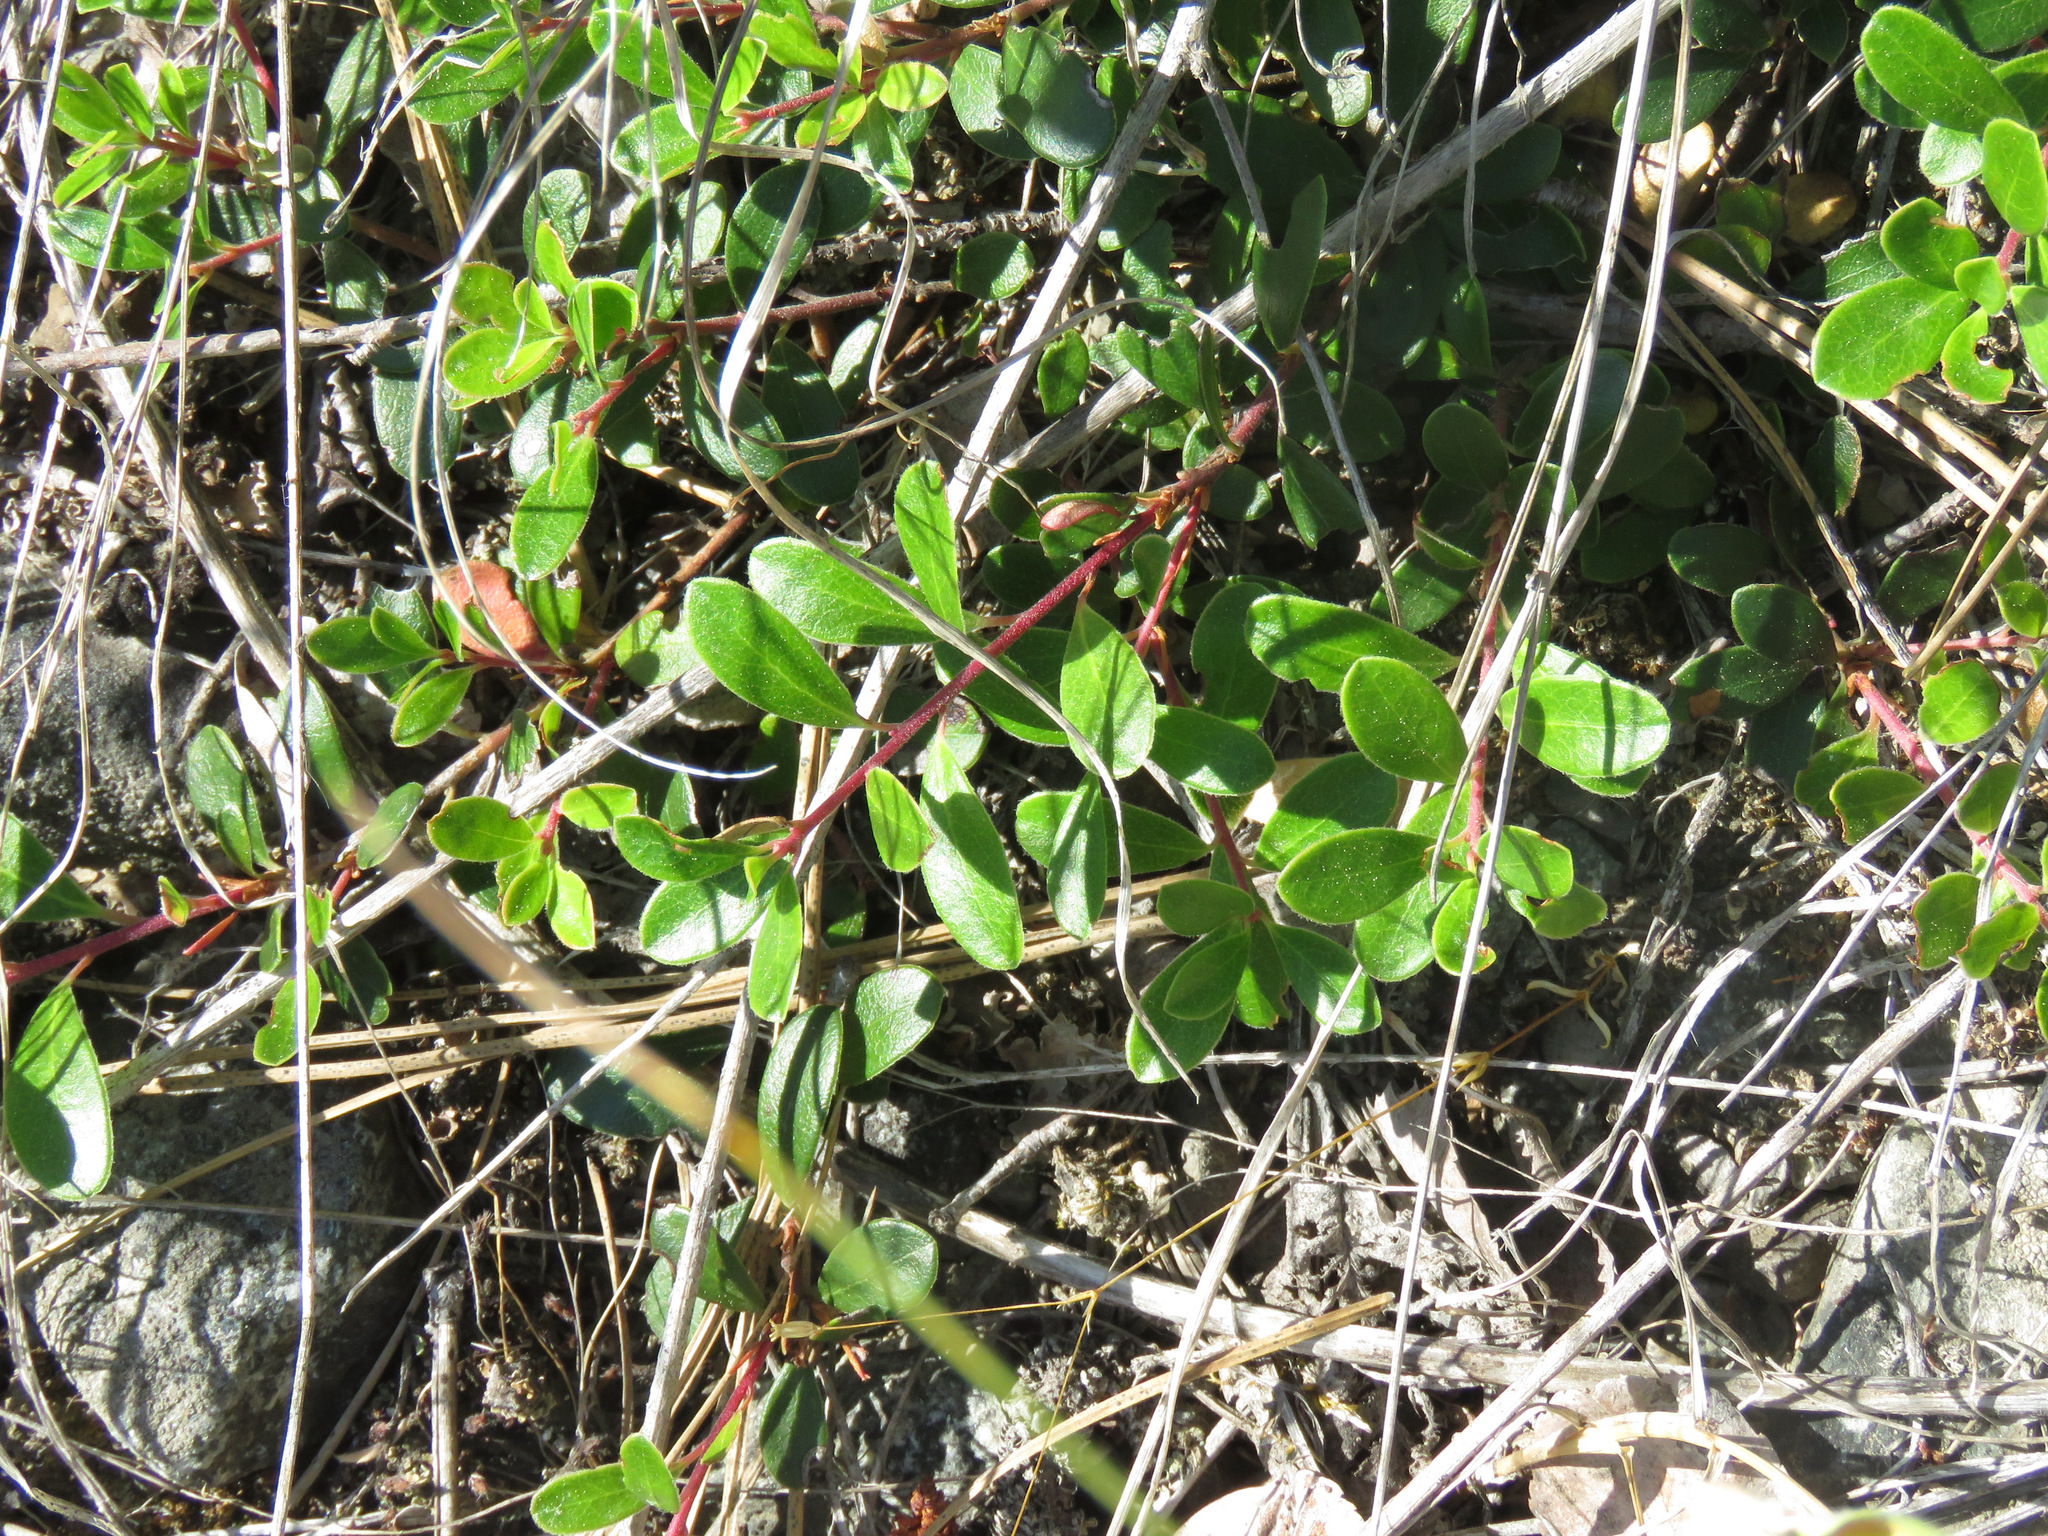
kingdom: Plantae
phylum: Tracheophyta
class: Magnoliopsida
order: Ericales
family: Ericaceae
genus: Arctostaphylos
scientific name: Arctostaphylos uva-ursi
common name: Bearberry
